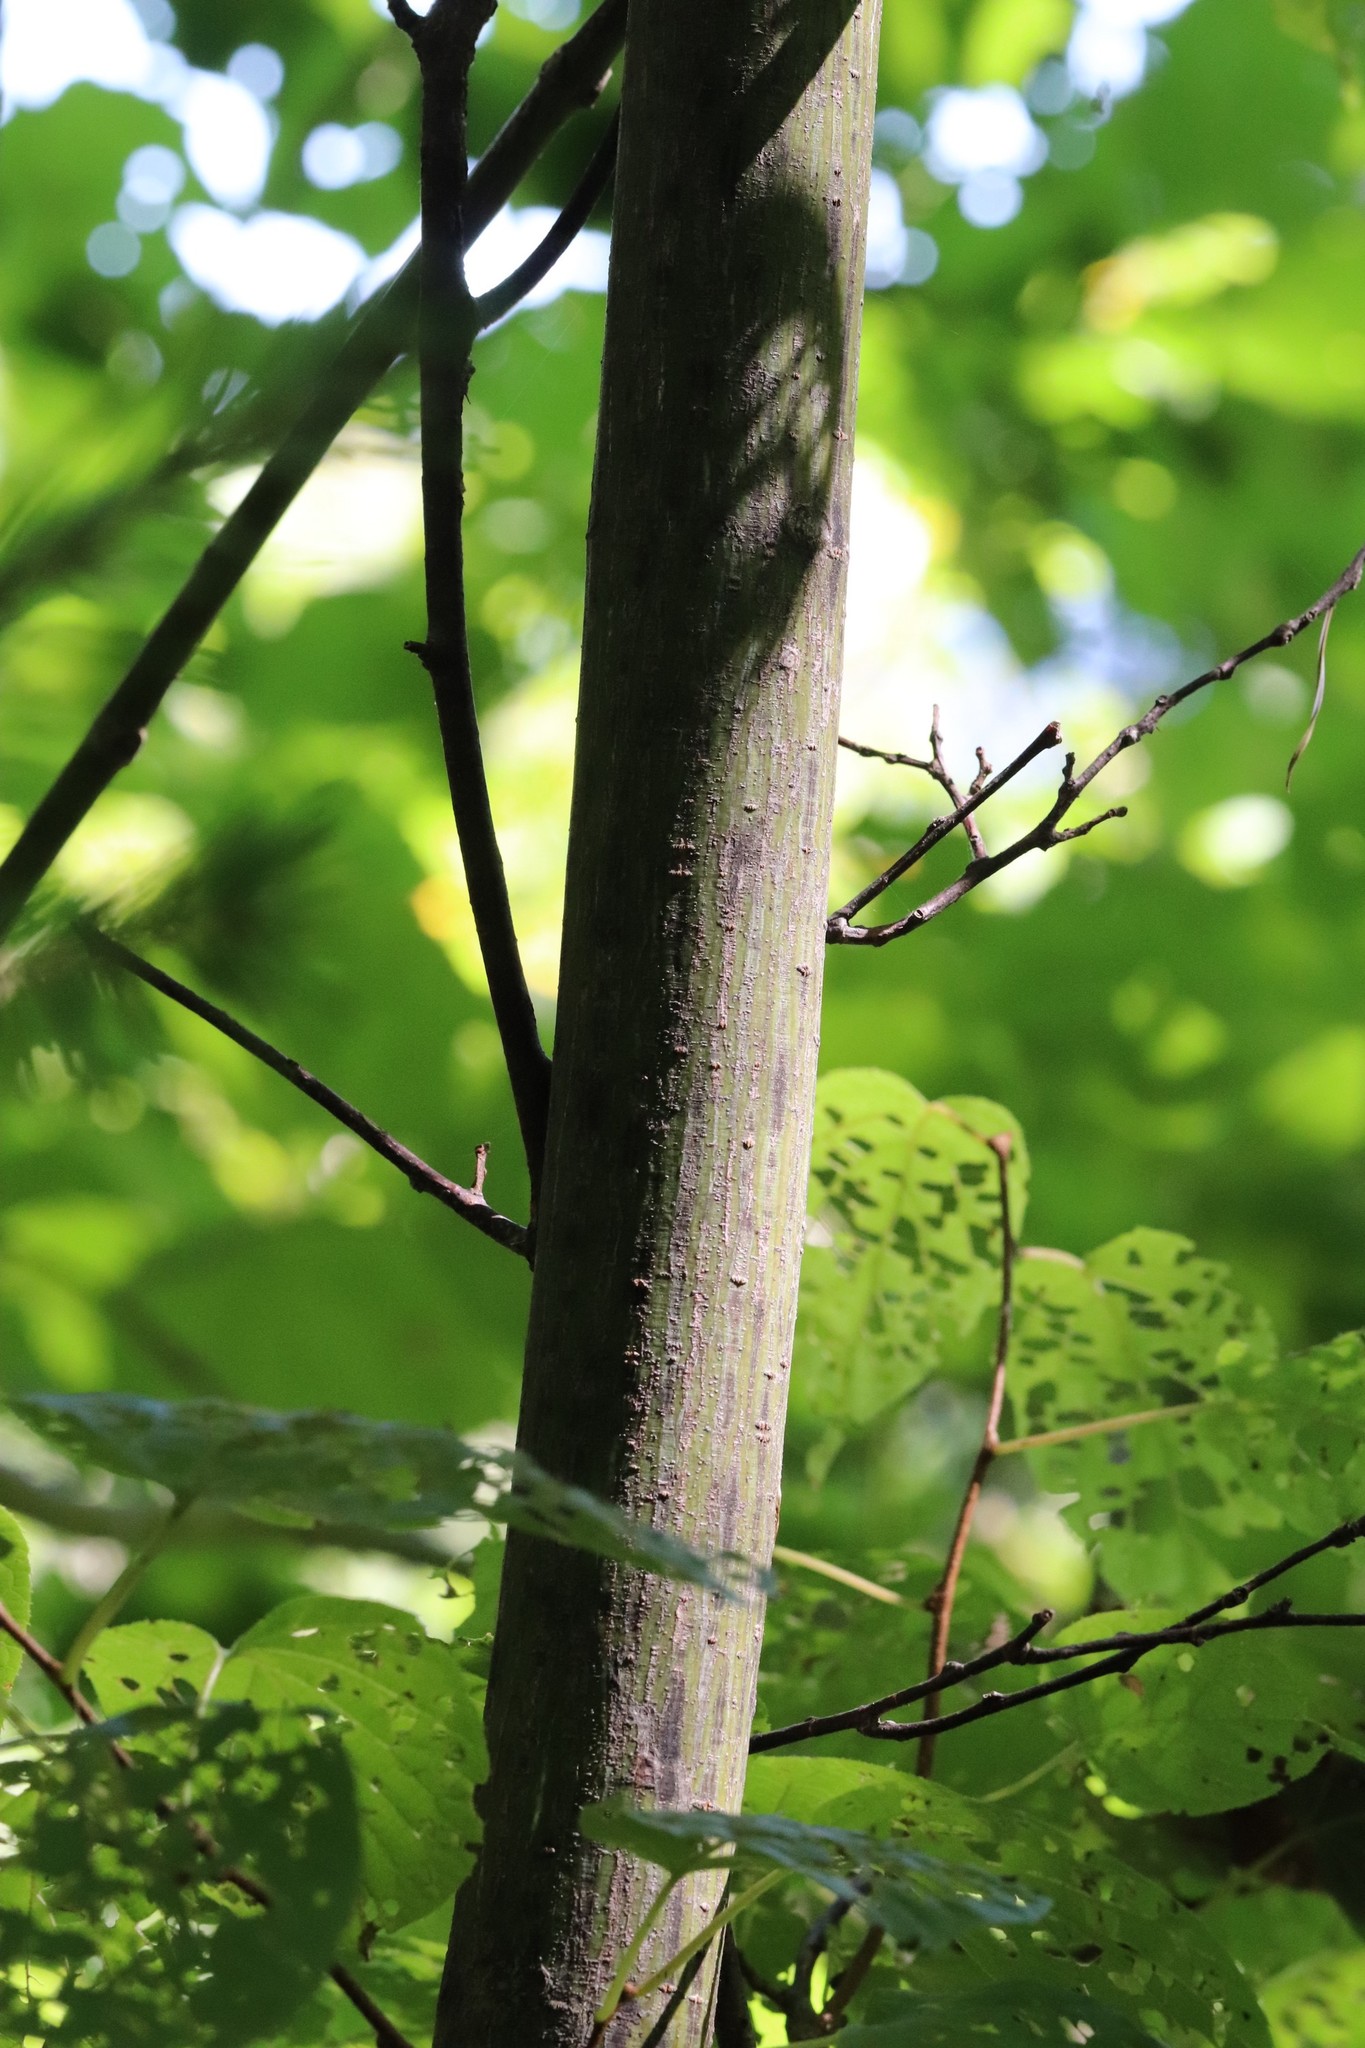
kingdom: Plantae
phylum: Tracheophyta
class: Magnoliopsida
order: Sapindales
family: Sapindaceae
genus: Acer
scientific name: Acer tegmentosum
